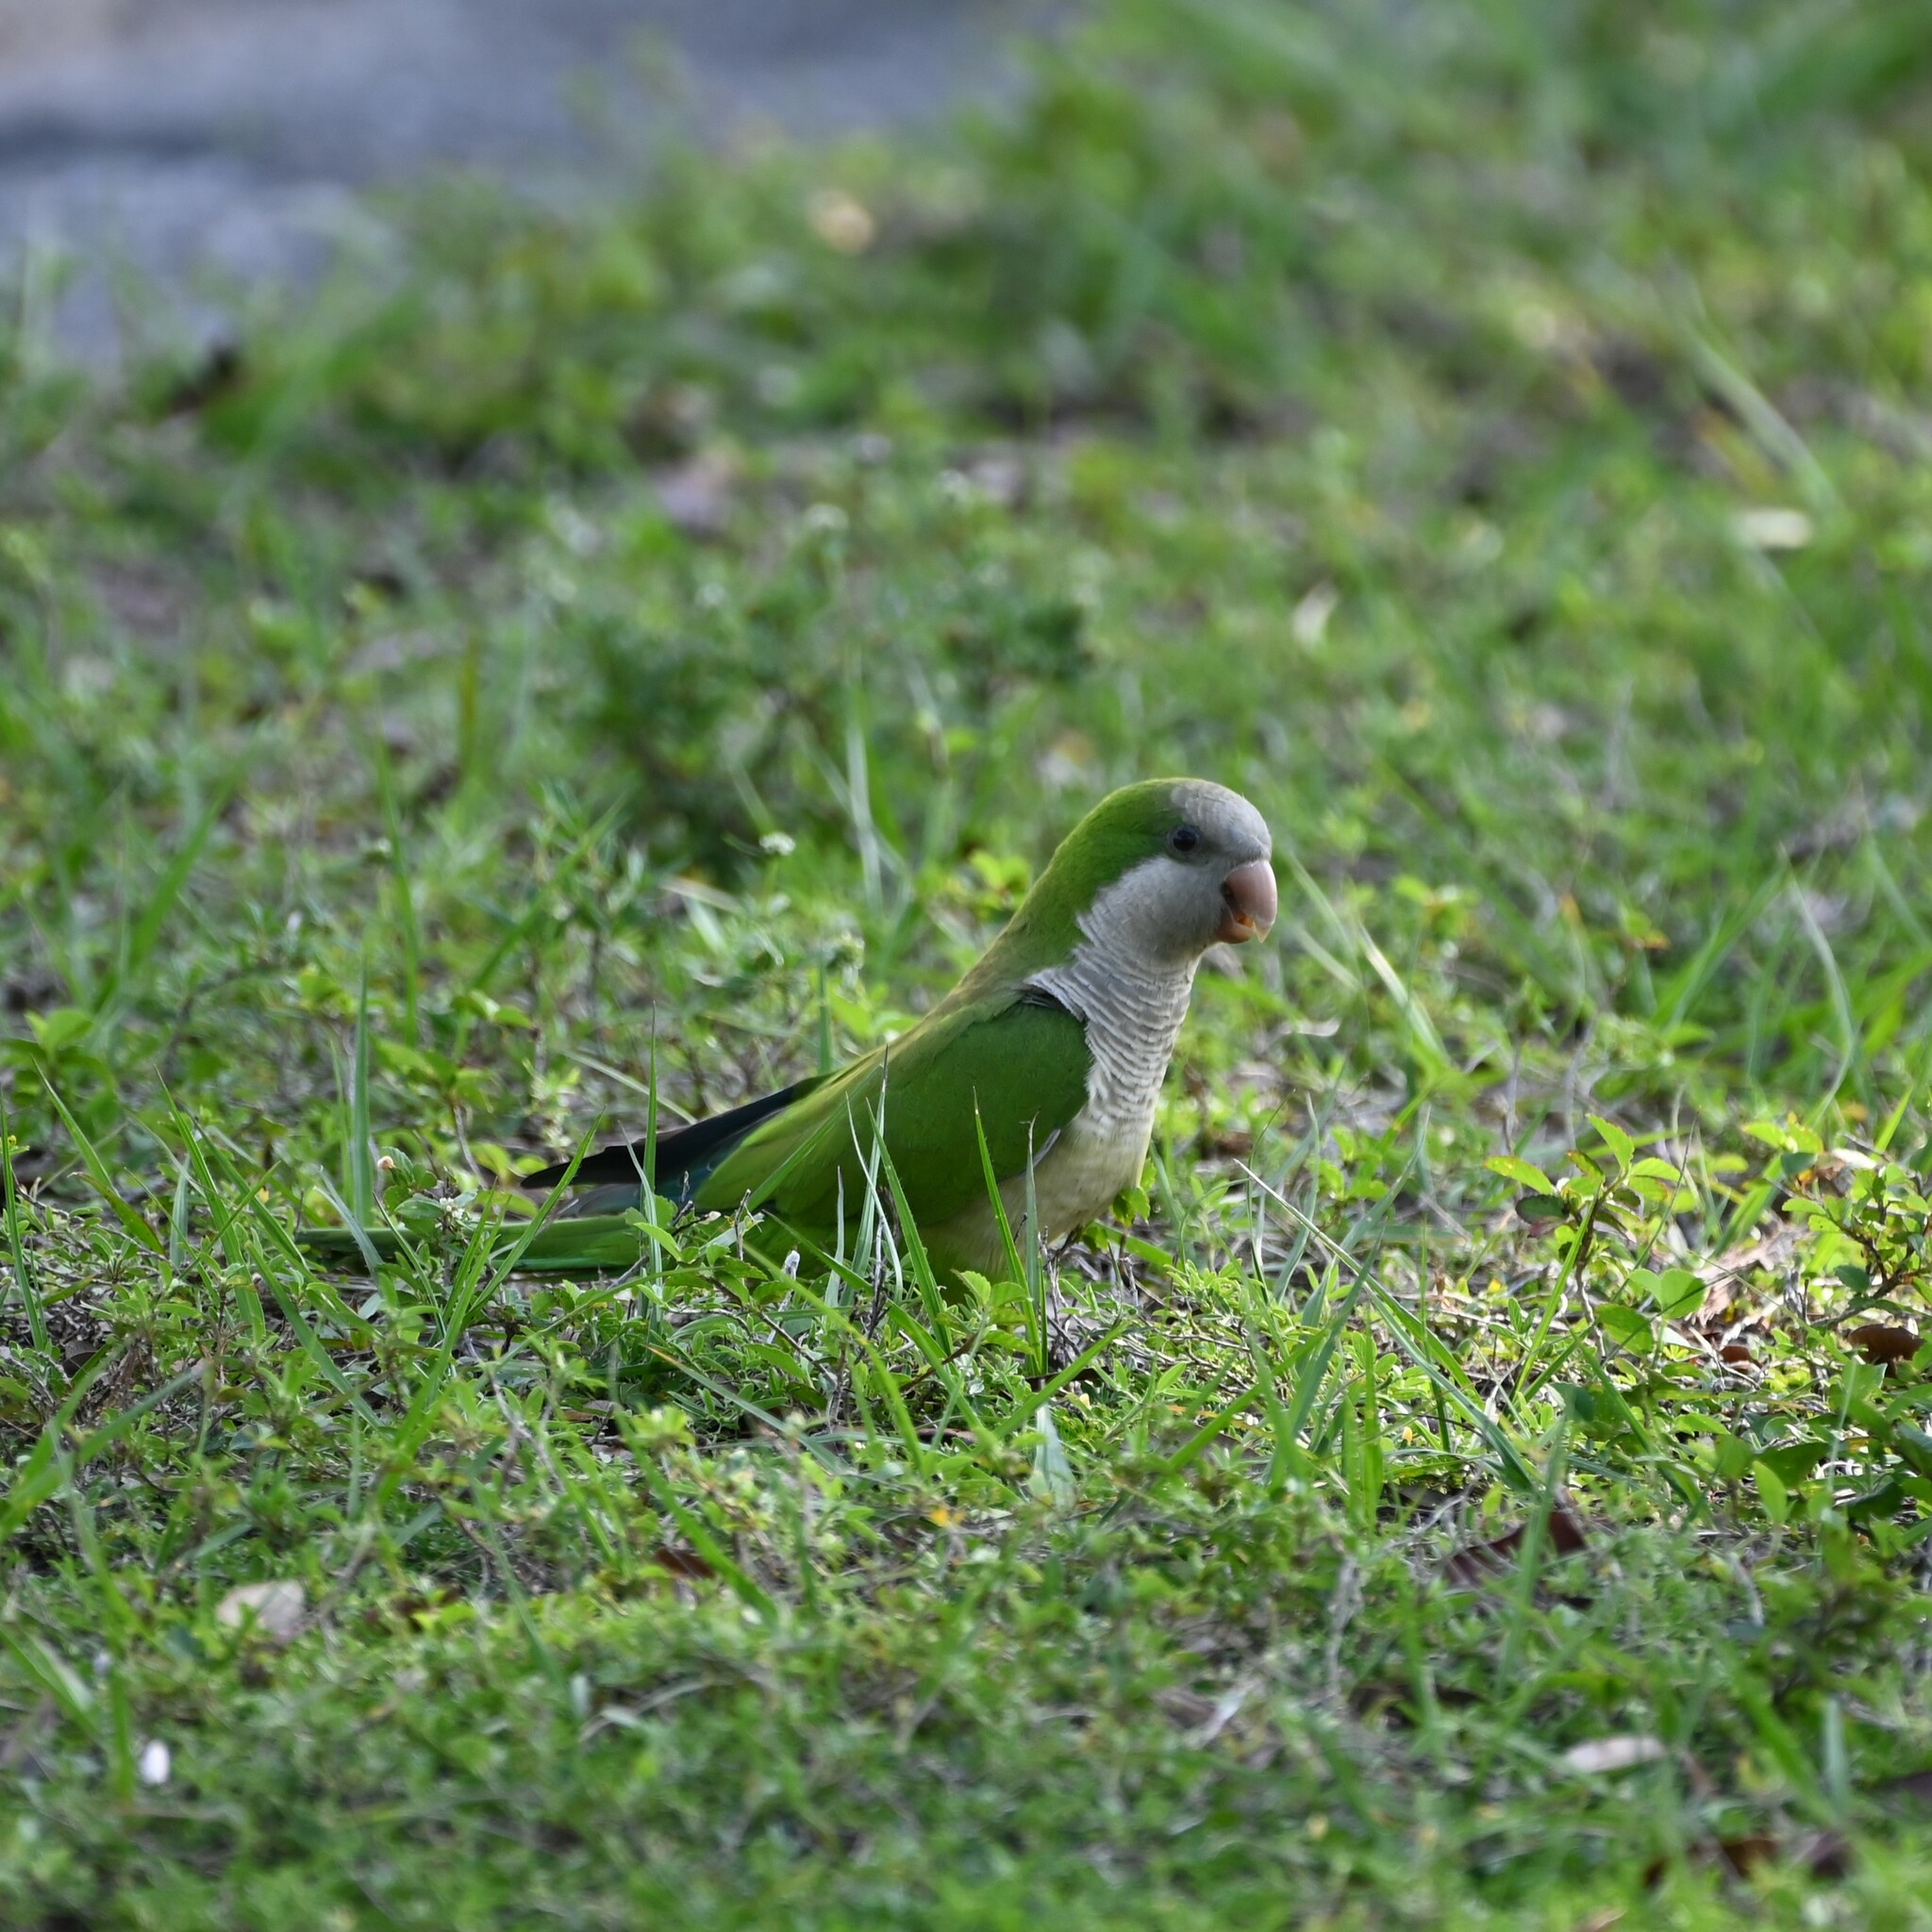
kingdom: Animalia
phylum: Chordata
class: Aves
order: Psittaciformes
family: Psittacidae
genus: Myiopsitta
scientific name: Myiopsitta monachus
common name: Monk parakeet
